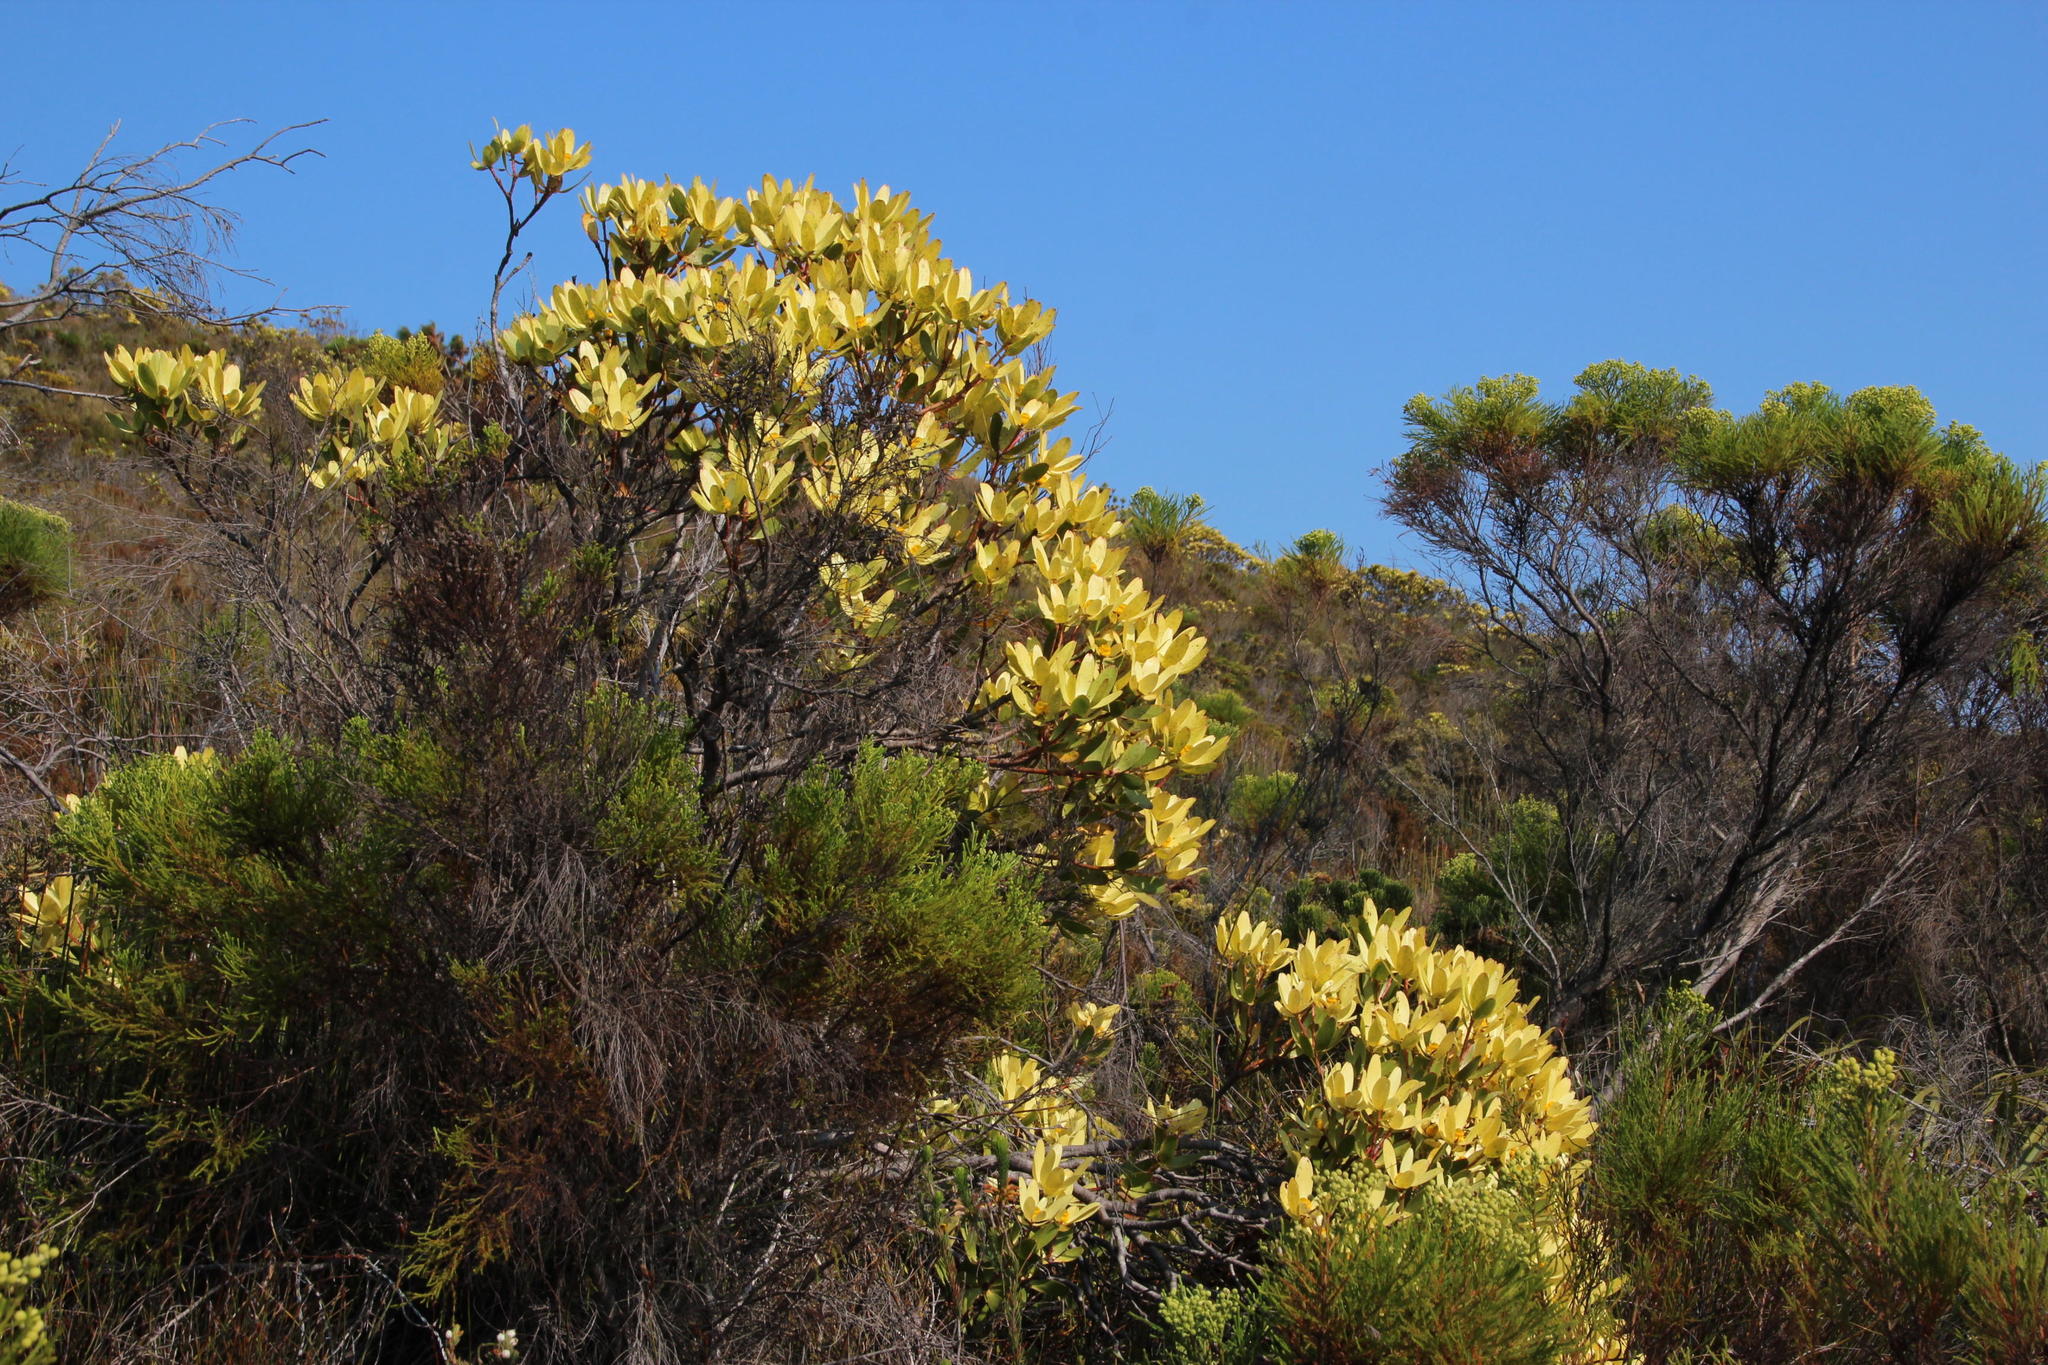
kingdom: Plantae
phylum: Tracheophyta
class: Magnoliopsida
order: Proteales
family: Proteaceae
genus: Leucadendron
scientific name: Leucadendron gandogeri
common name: Broad-leaf conebush
